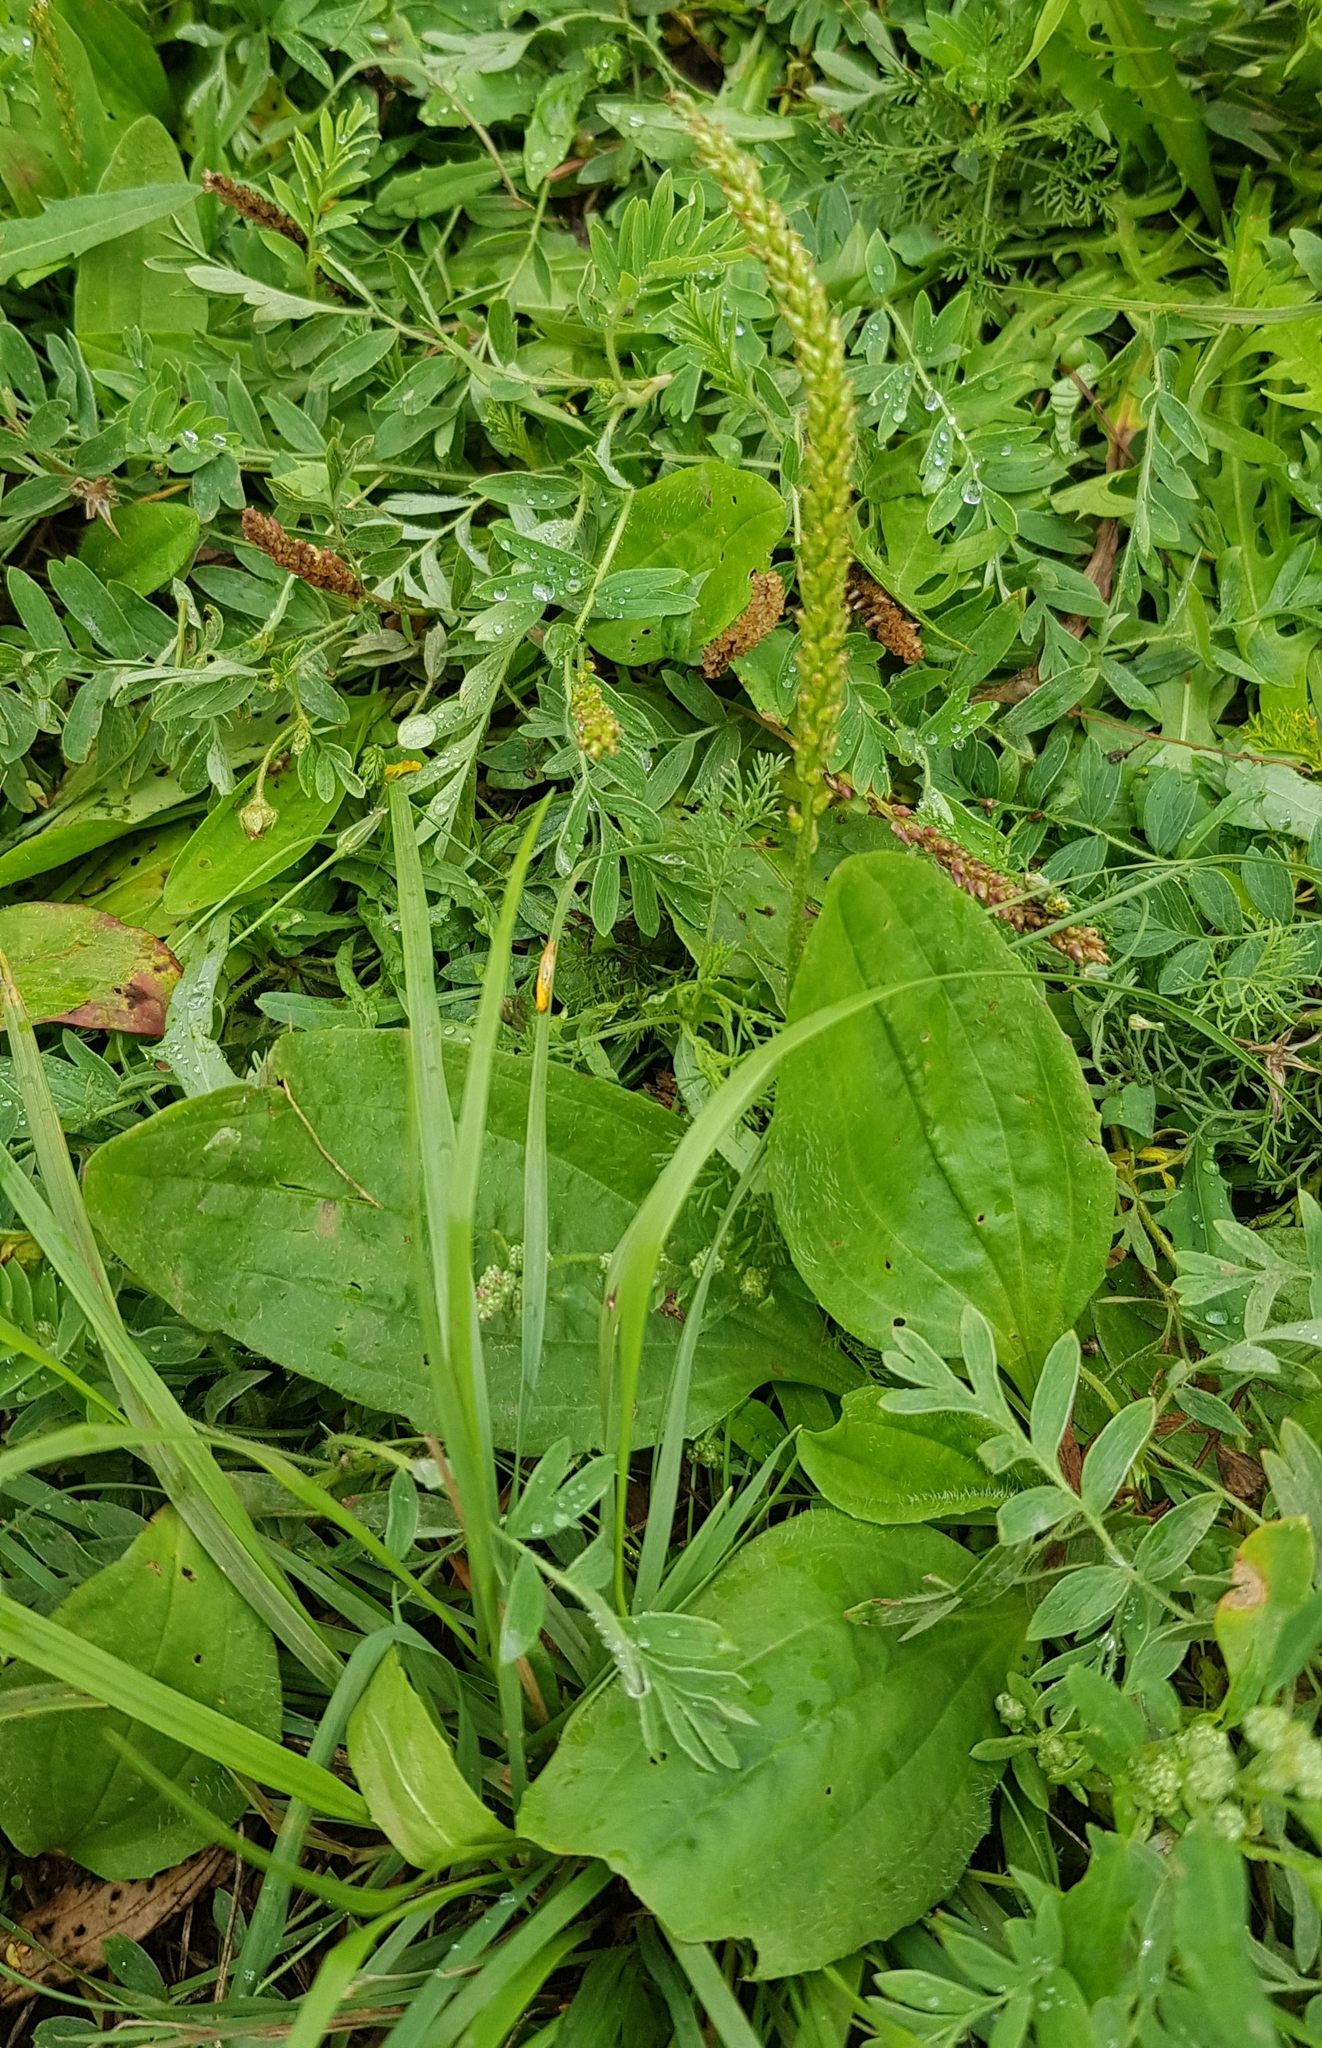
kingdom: Plantae
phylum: Tracheophyta
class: Magnoliopsida
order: Lamiales
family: Plantaginaceae
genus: Plantago
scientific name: Plantago major
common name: Common plantain
